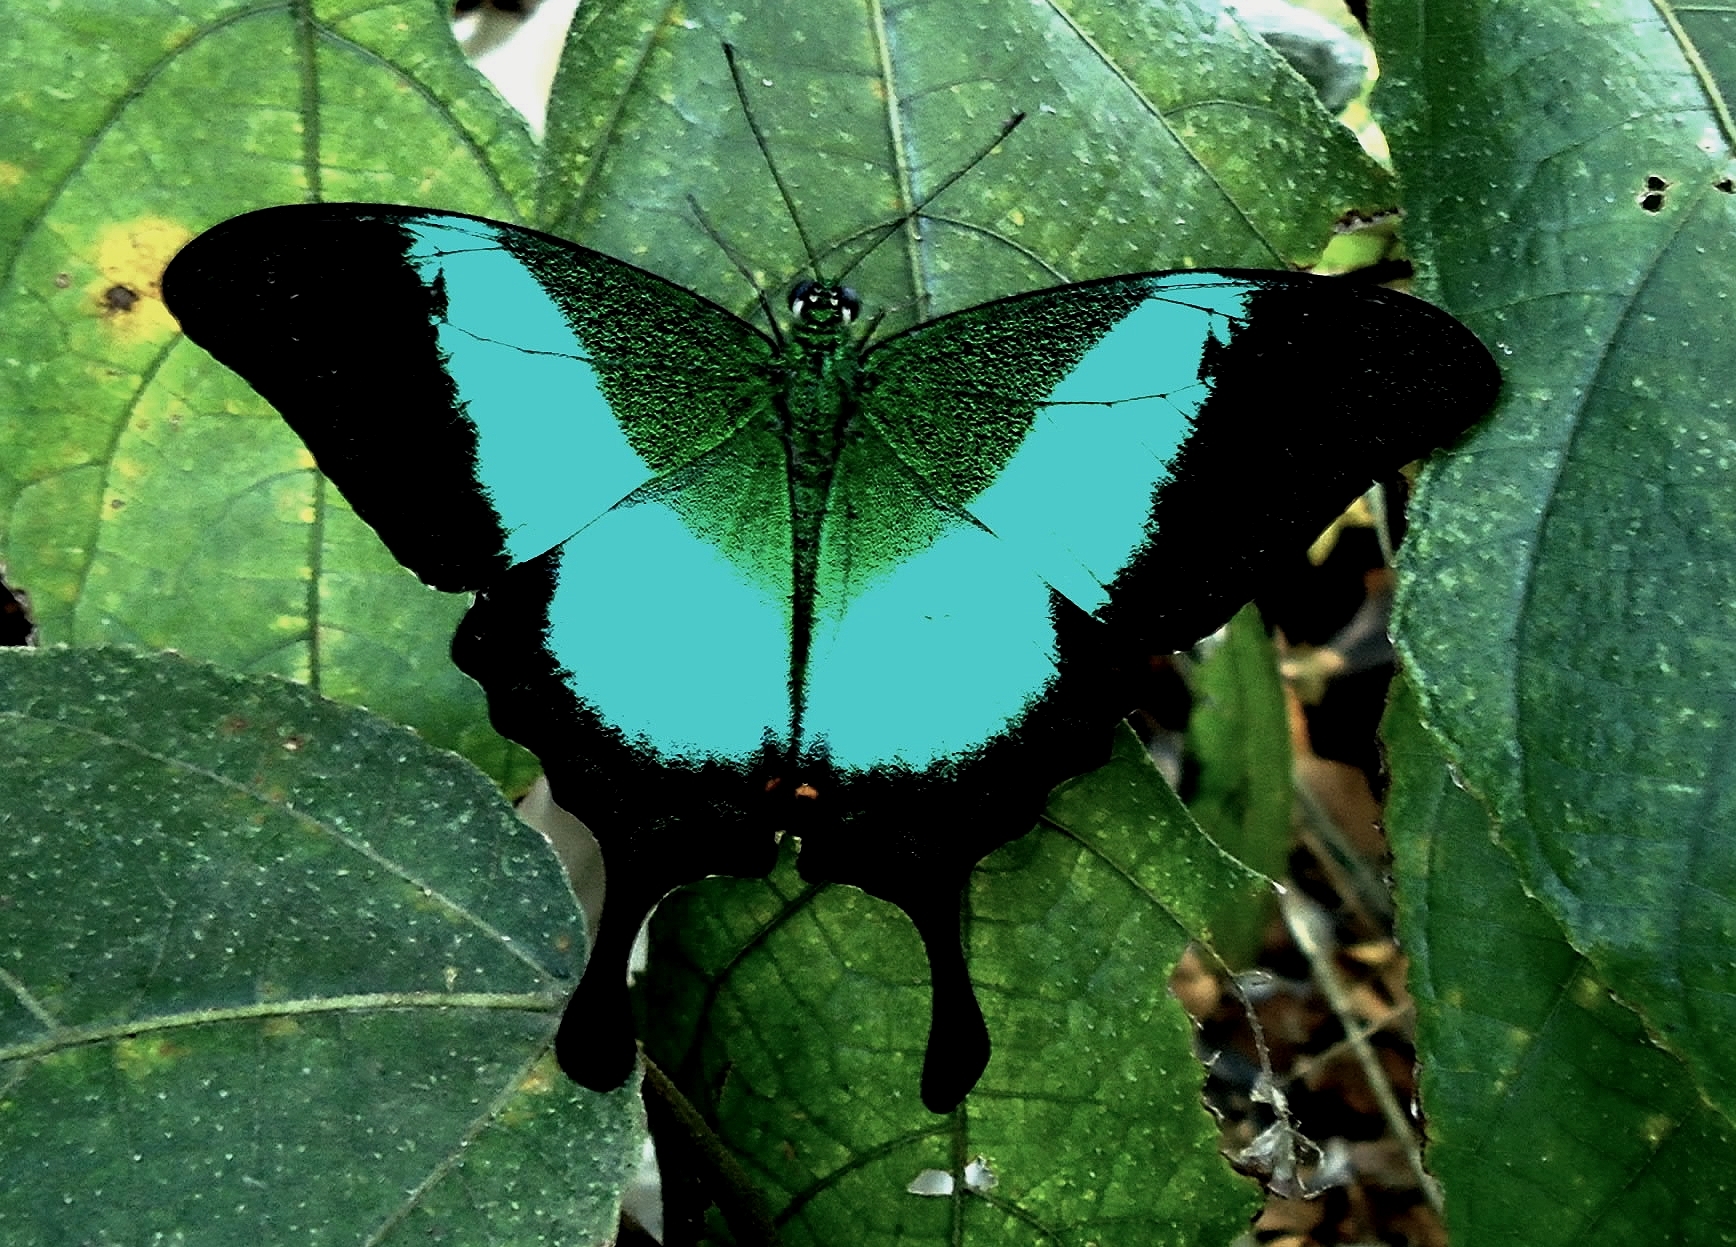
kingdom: Animalia
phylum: Arthropoda
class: Insecta
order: Lepidoptera
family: Papilionidae
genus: Papilio
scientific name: Papilio buddha
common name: Malabar banded peacock
